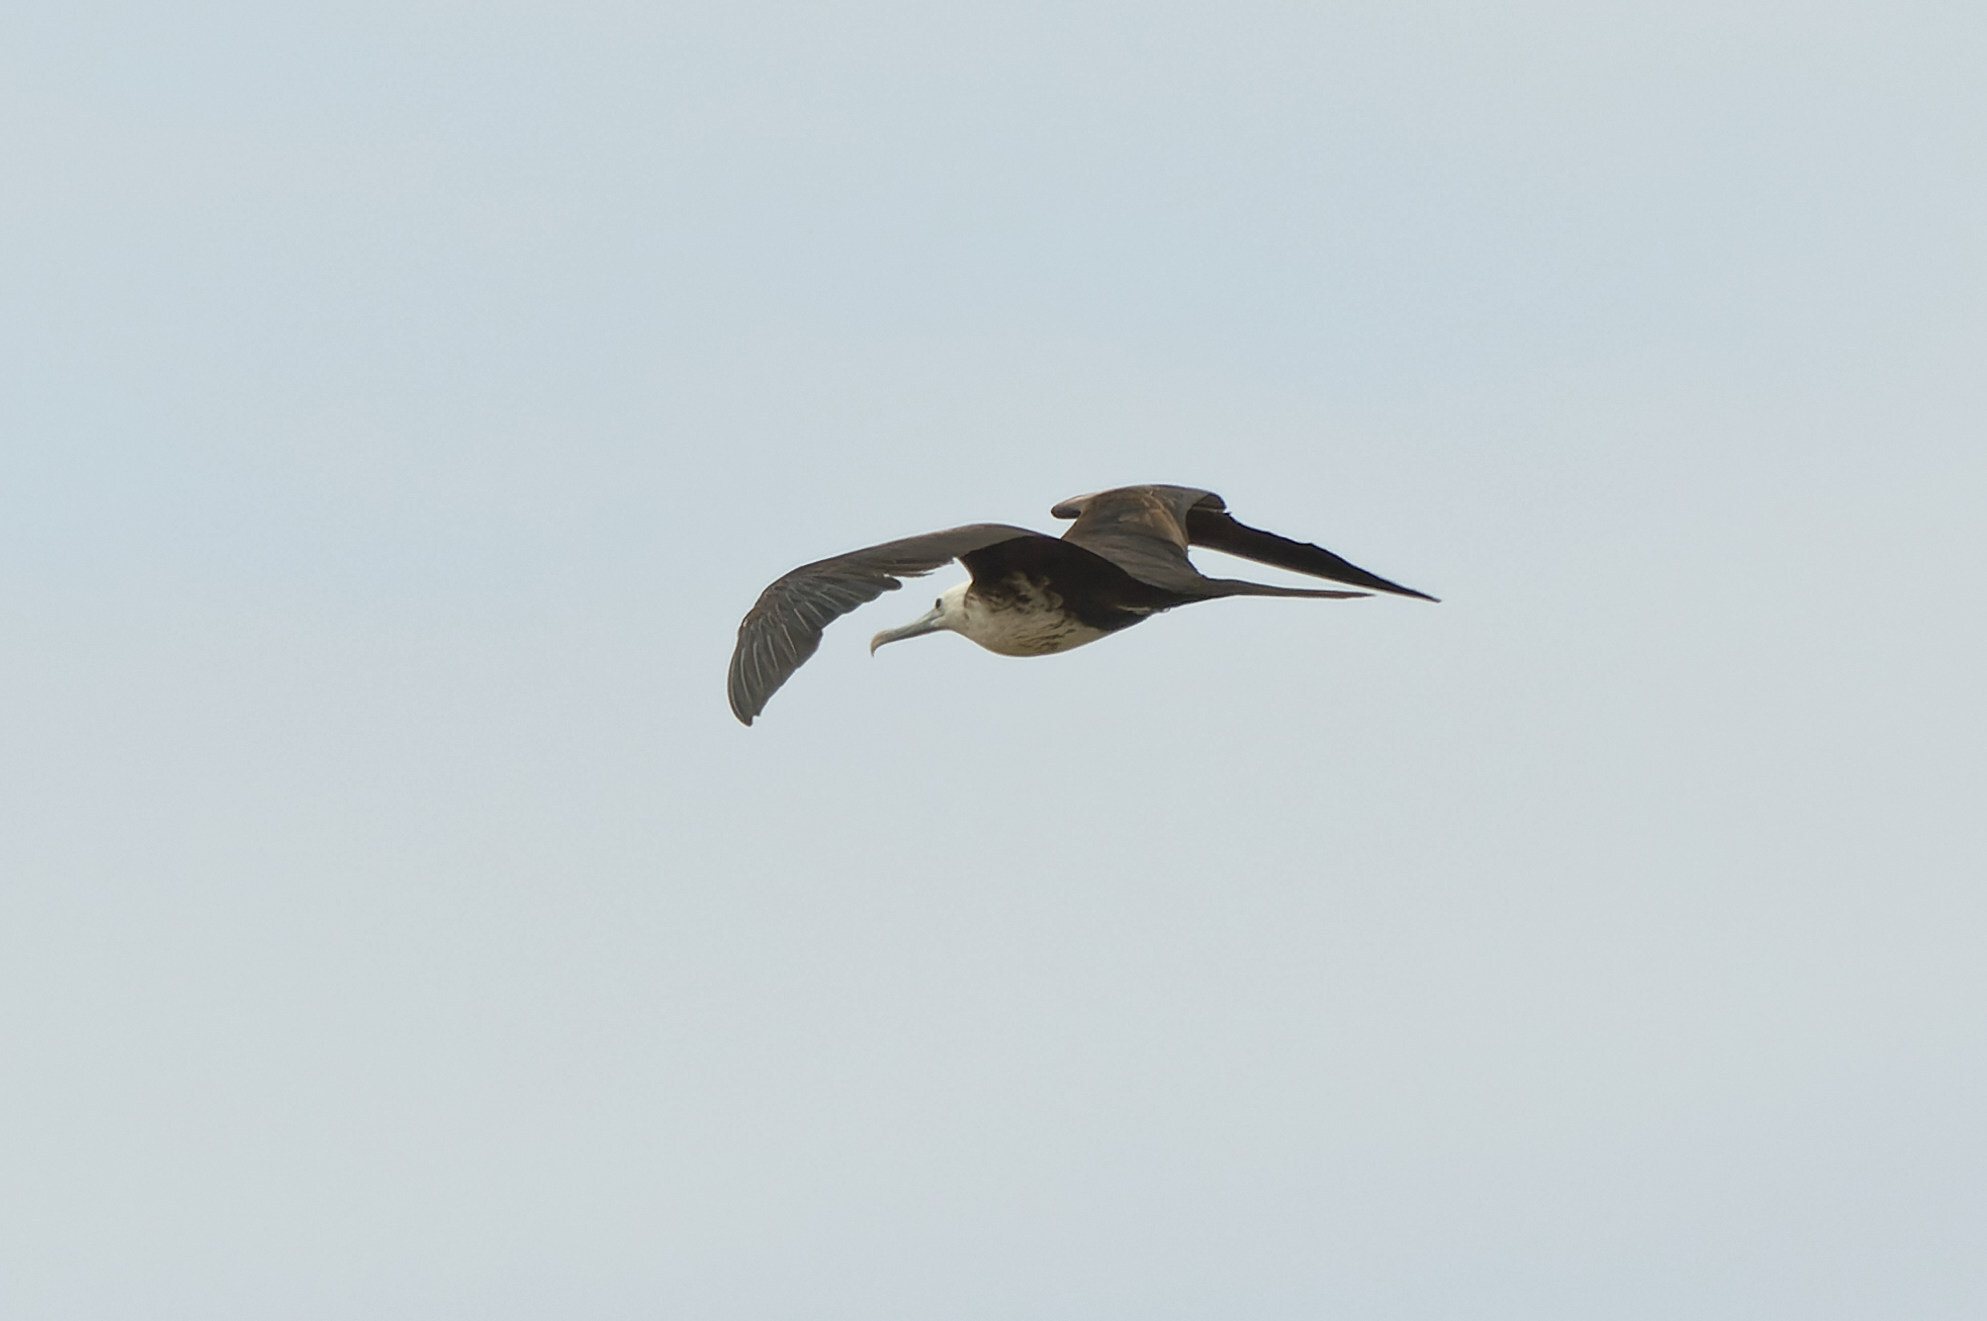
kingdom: Animalia
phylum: Chordata
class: Aves
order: Suliformes
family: Fregatidae
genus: Fregata
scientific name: Fregata magnificens
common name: Magnificent frigatebird
